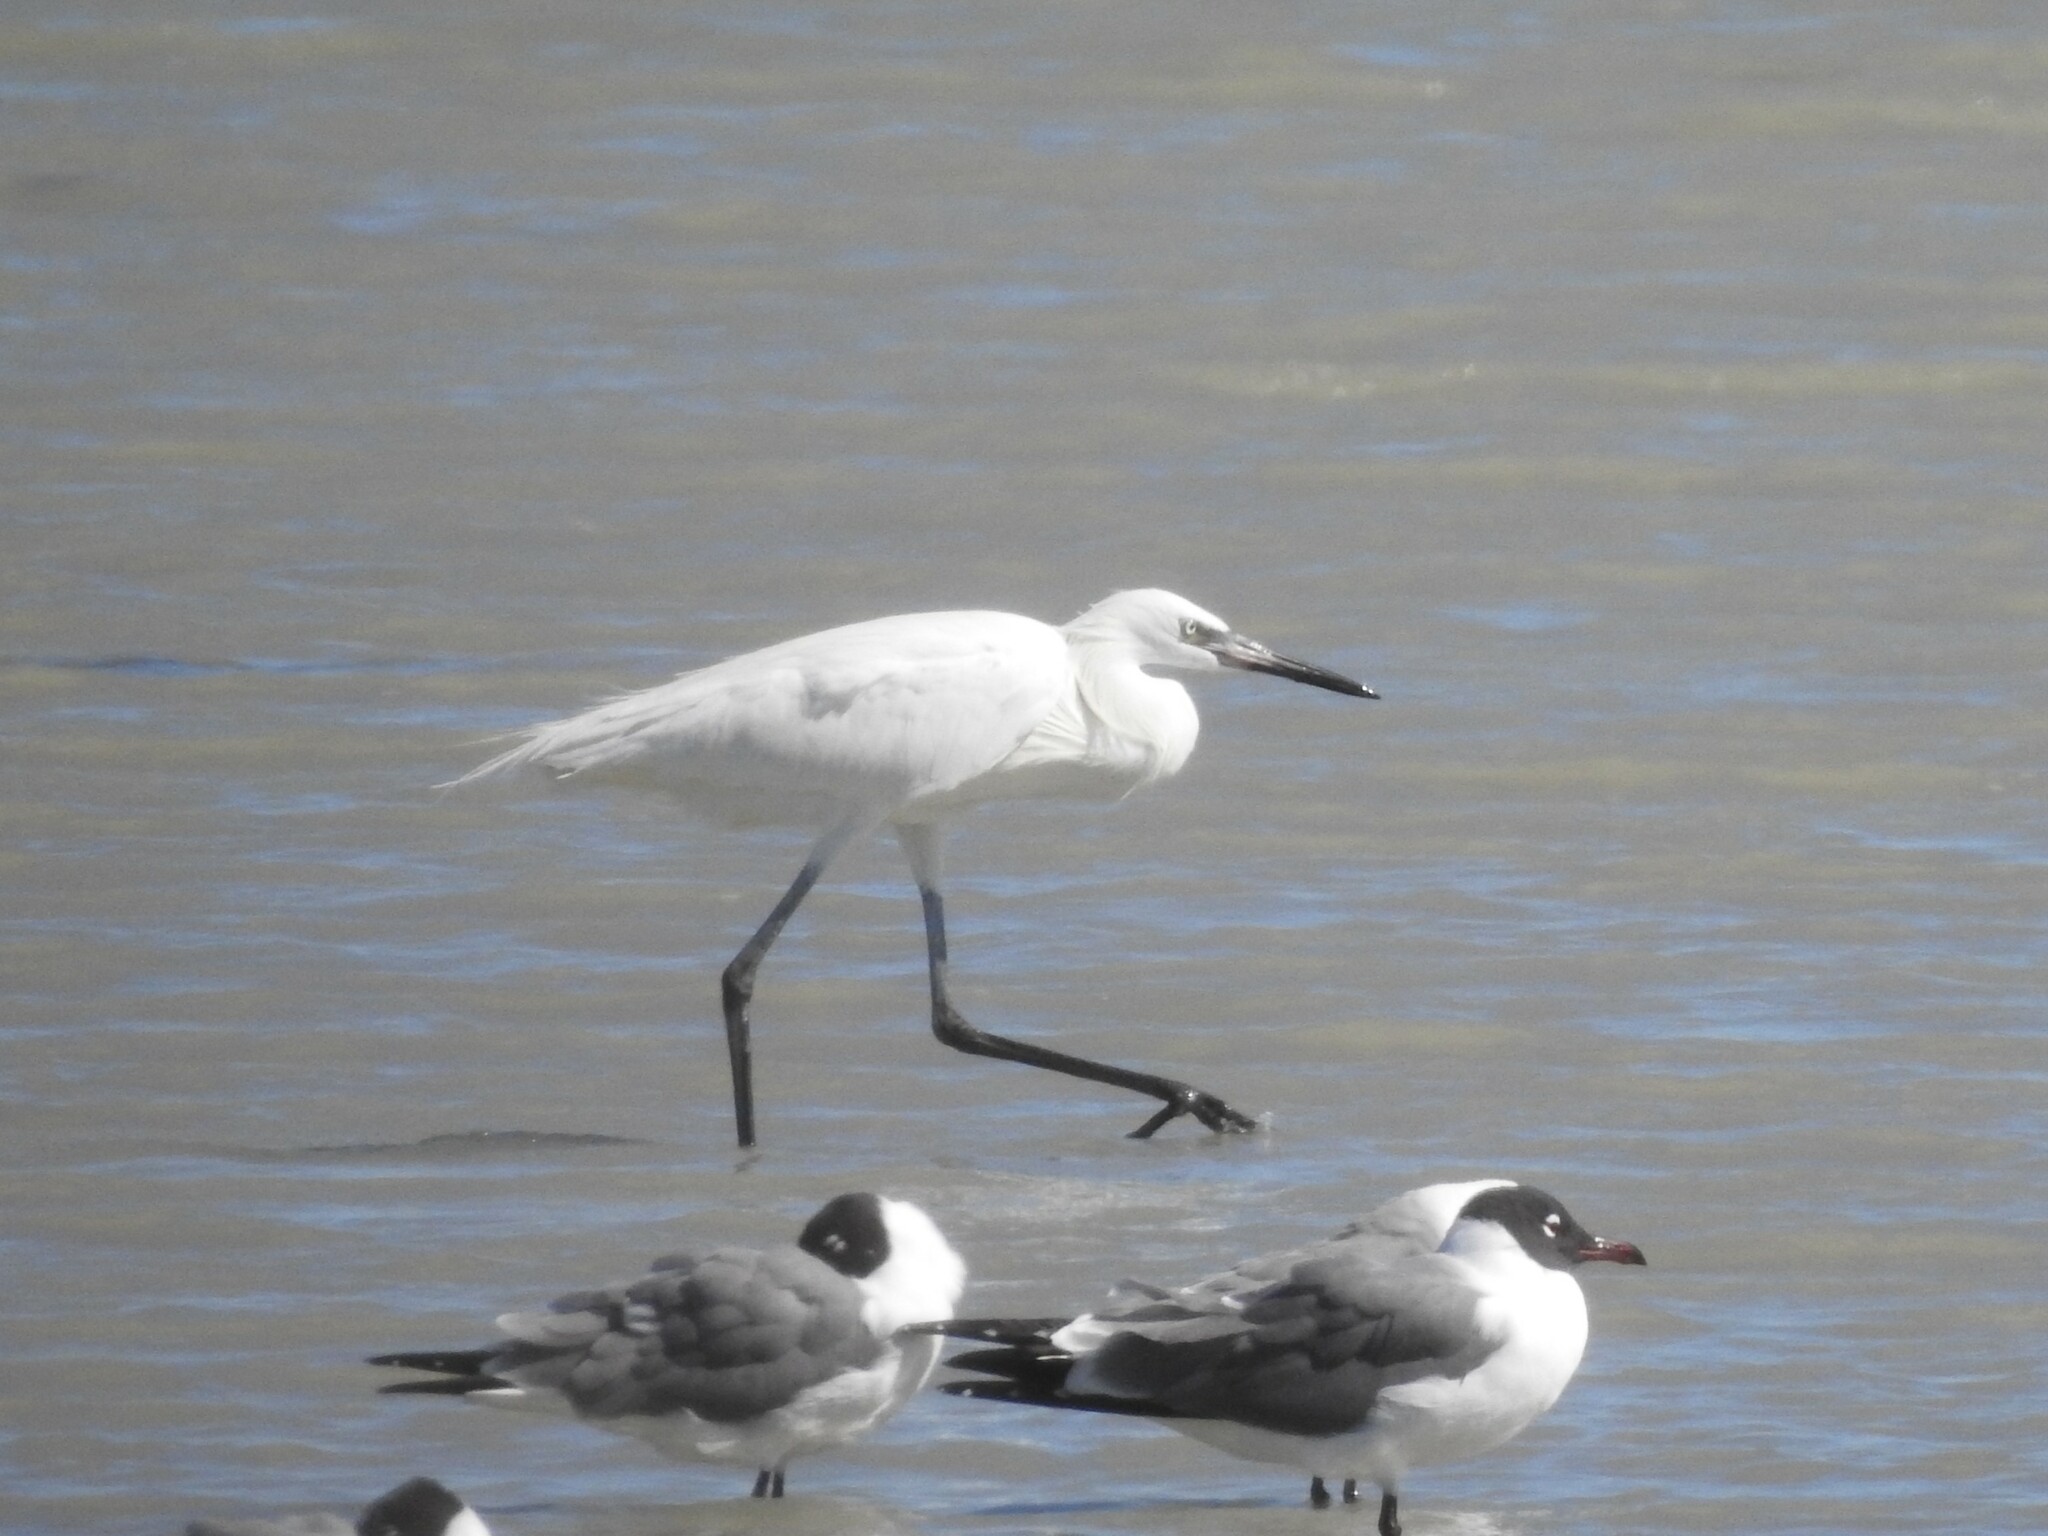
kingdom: Animalia
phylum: Chordata
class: Aves
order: Pelecaniformes
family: Ardeidae
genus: Egretta
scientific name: Egretta rufescens
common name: Reddish egret
